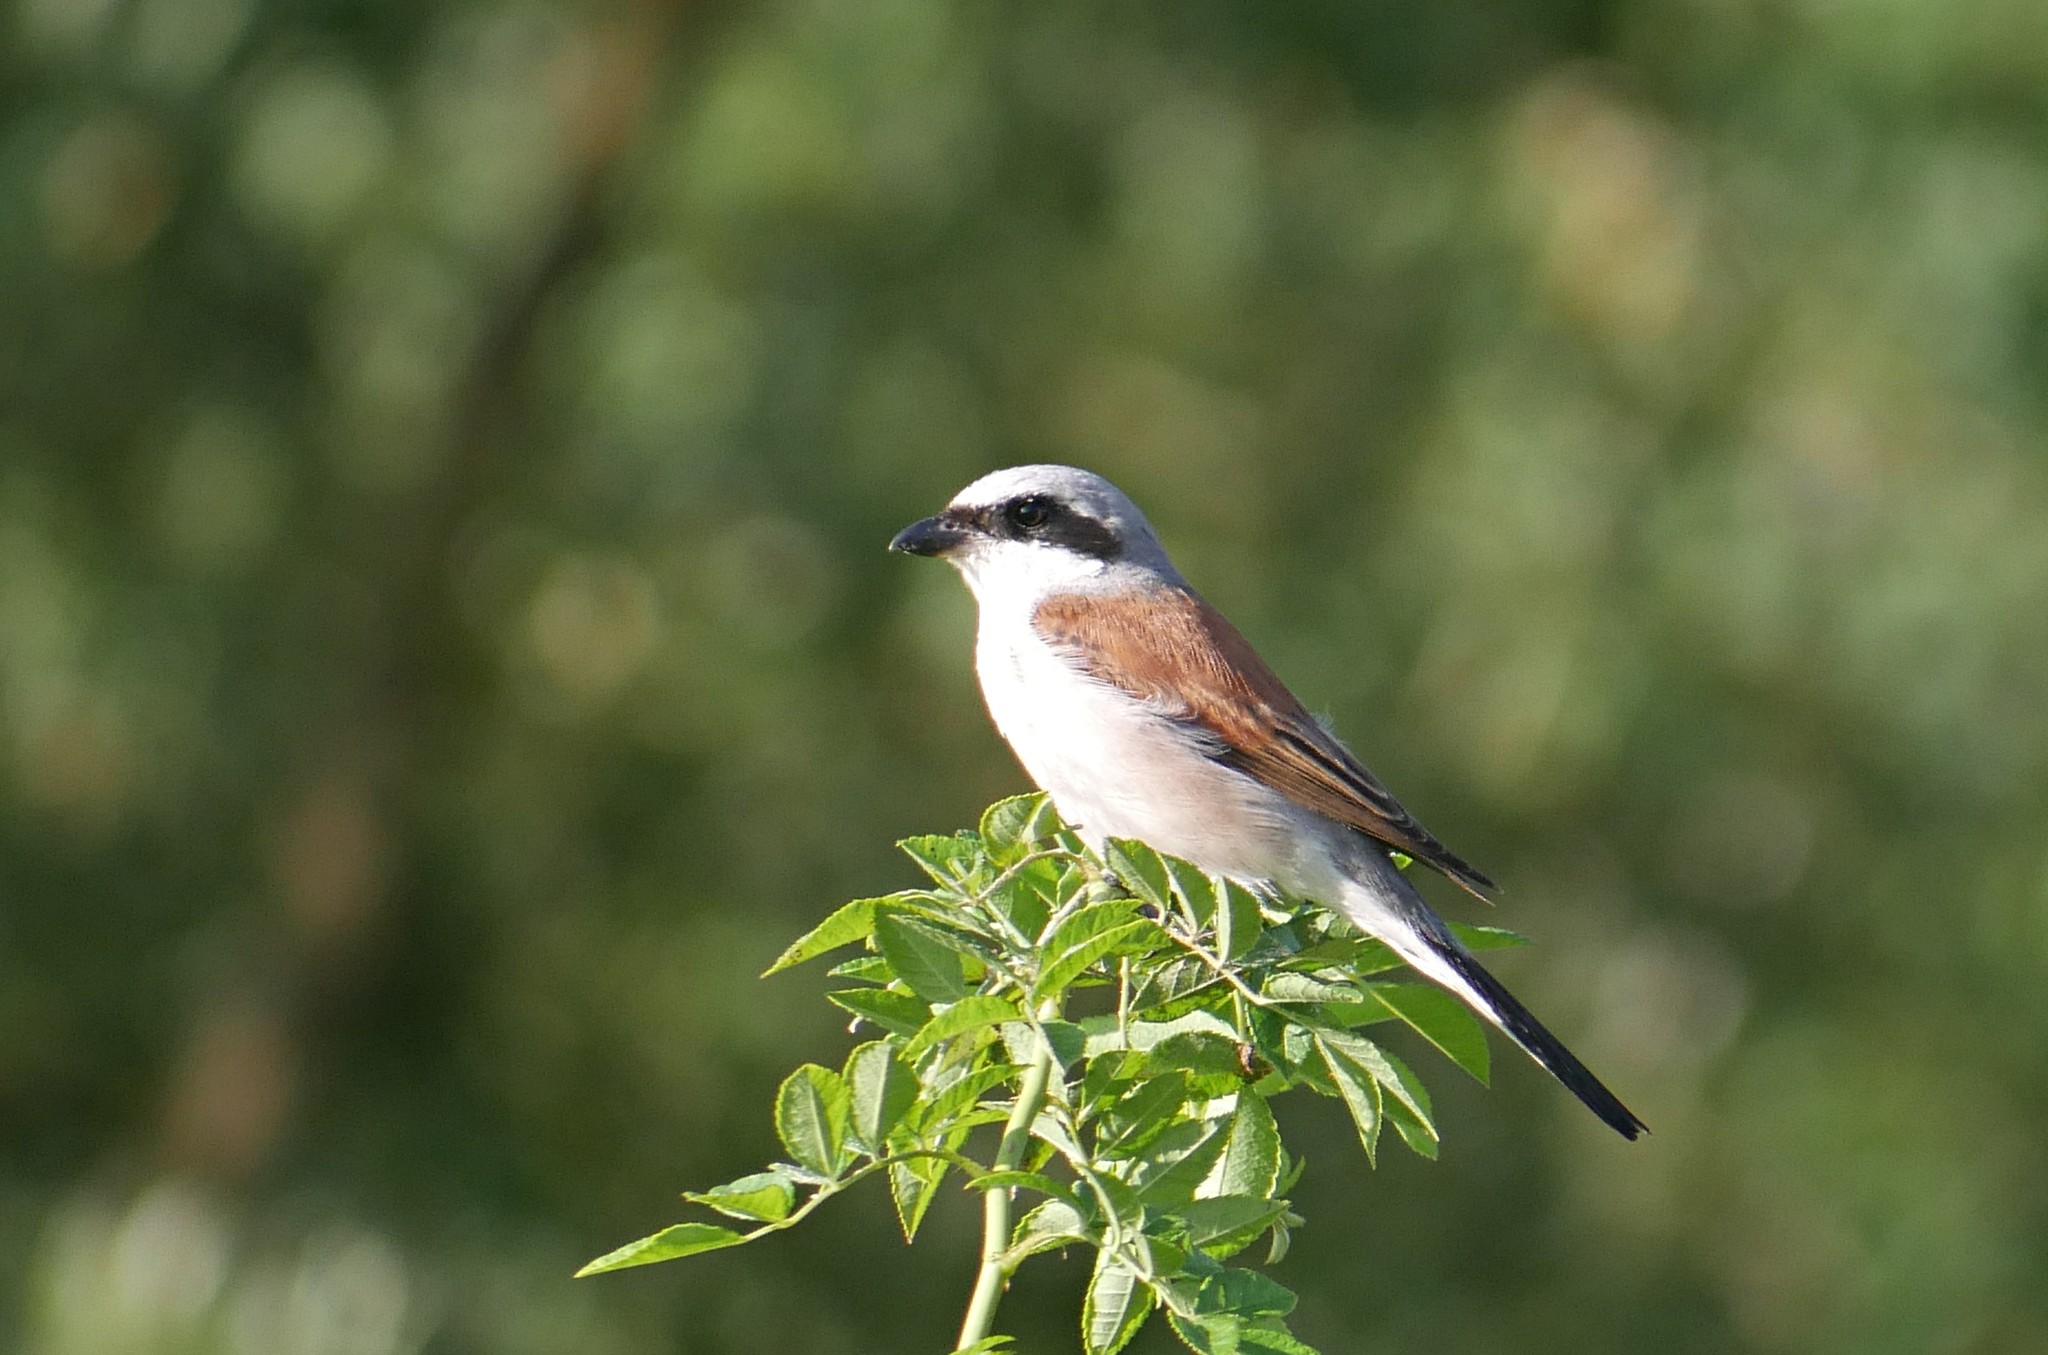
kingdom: Animalia
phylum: Chordata
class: Aves
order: Passeriformes
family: Laniidae
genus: Lanius
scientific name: Lanius collurio
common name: Red-backed shrike
